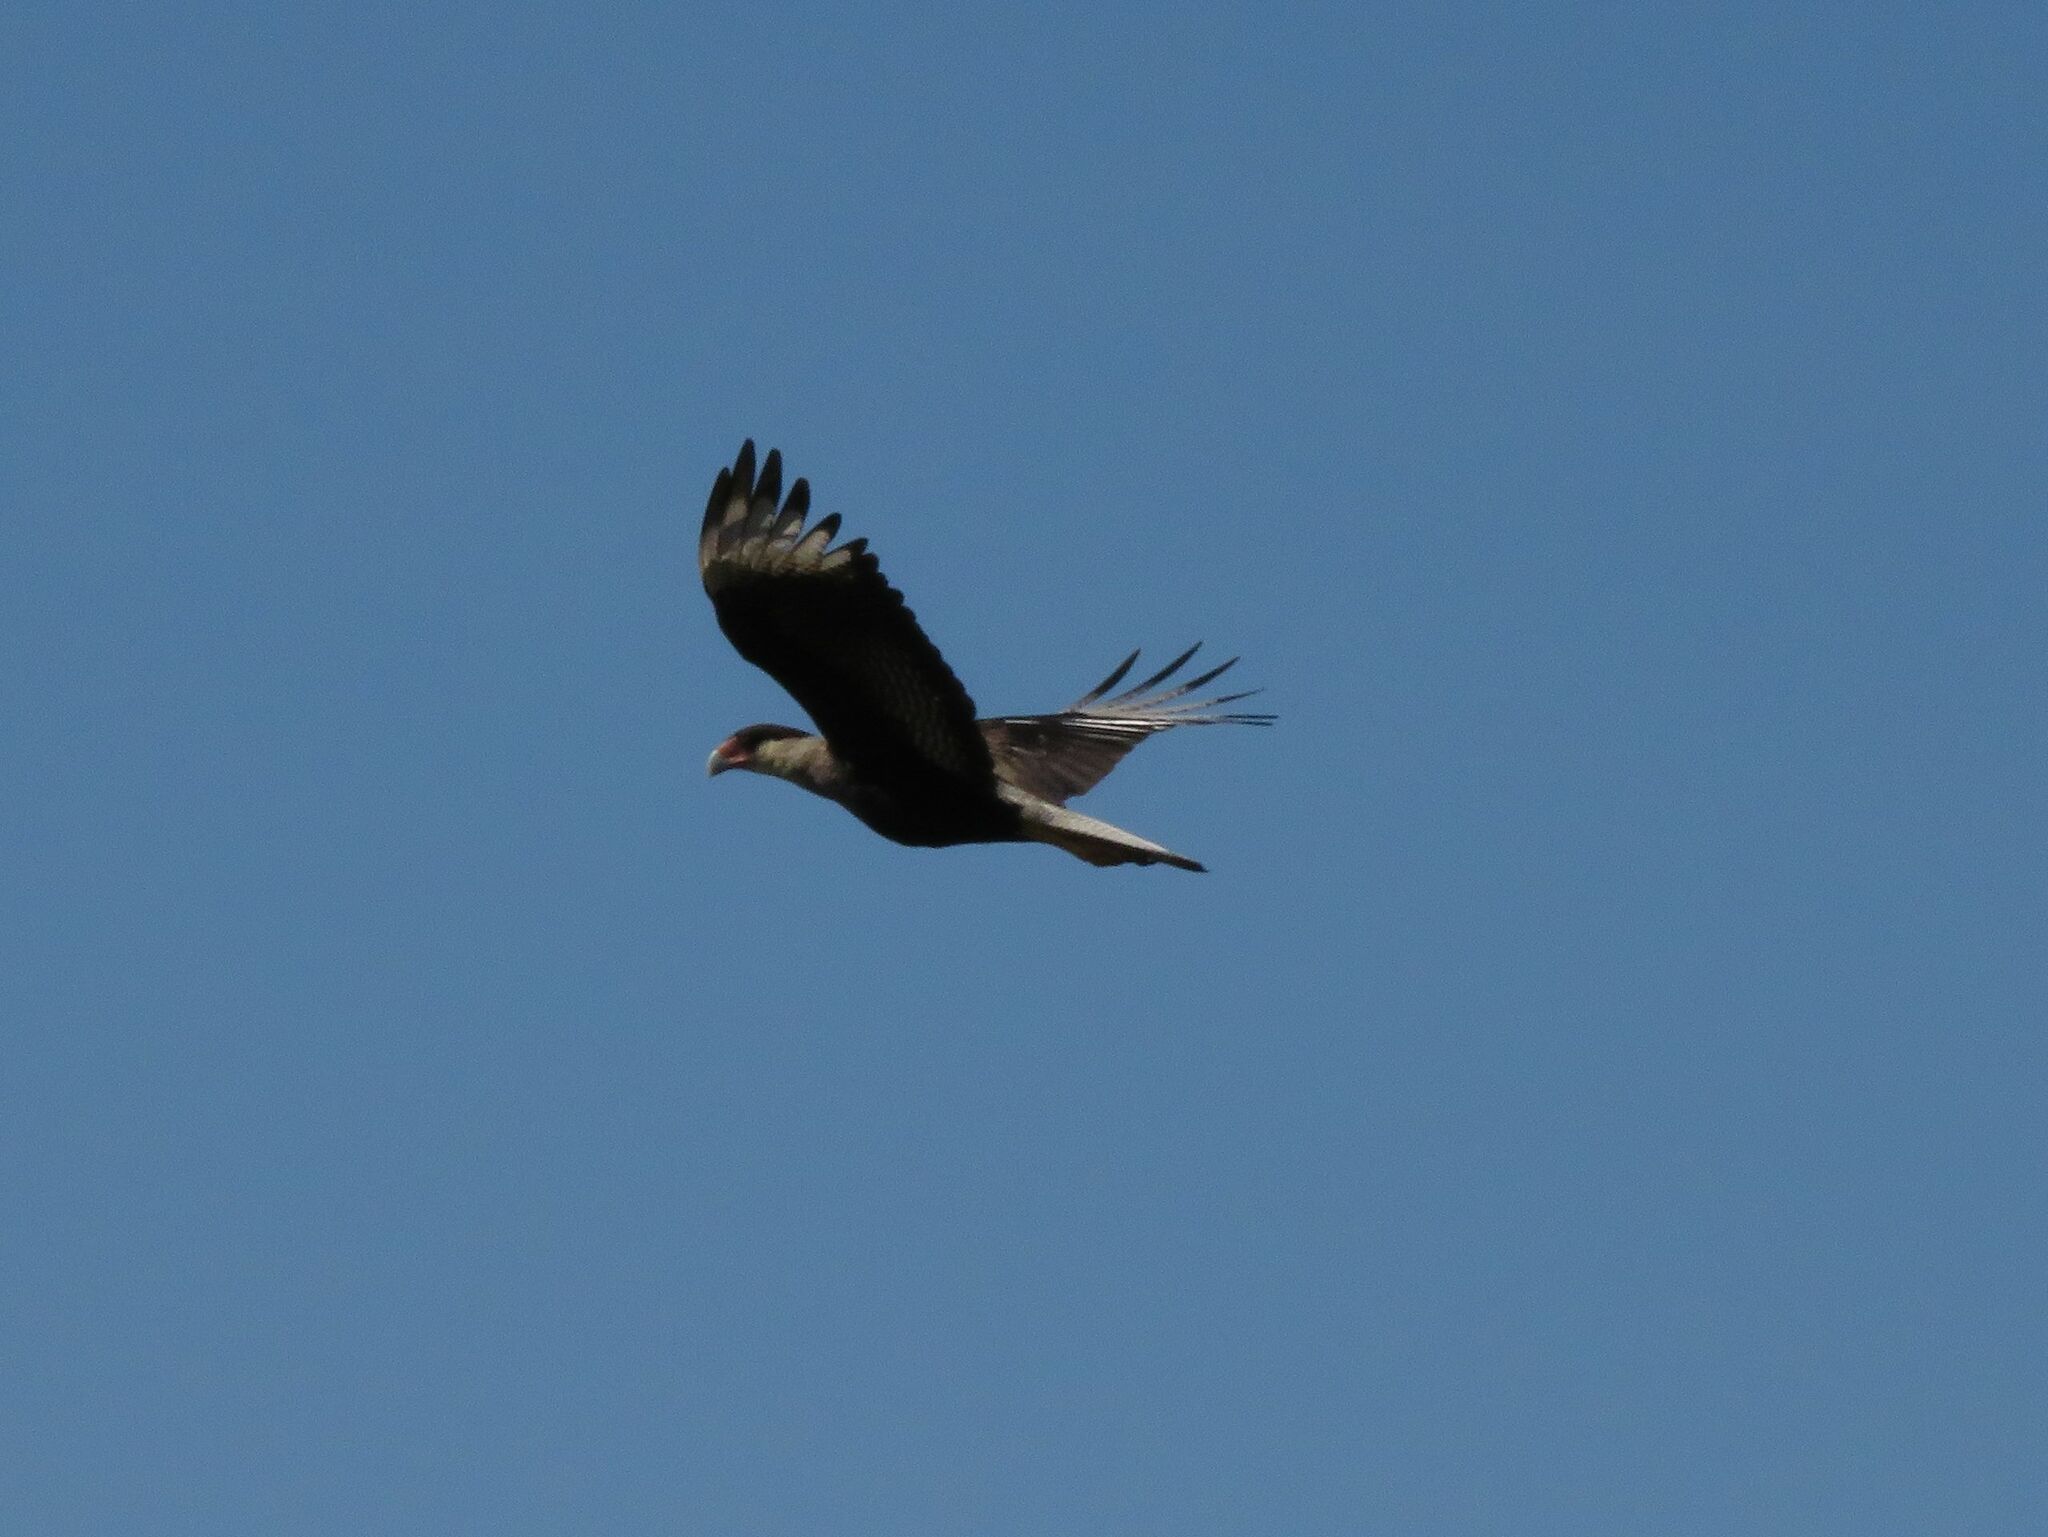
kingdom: Animalia
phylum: Chordata
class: Aves
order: Falconiformes
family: Falconidae
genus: Caracara
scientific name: Caracara plancus
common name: Southern caracara
